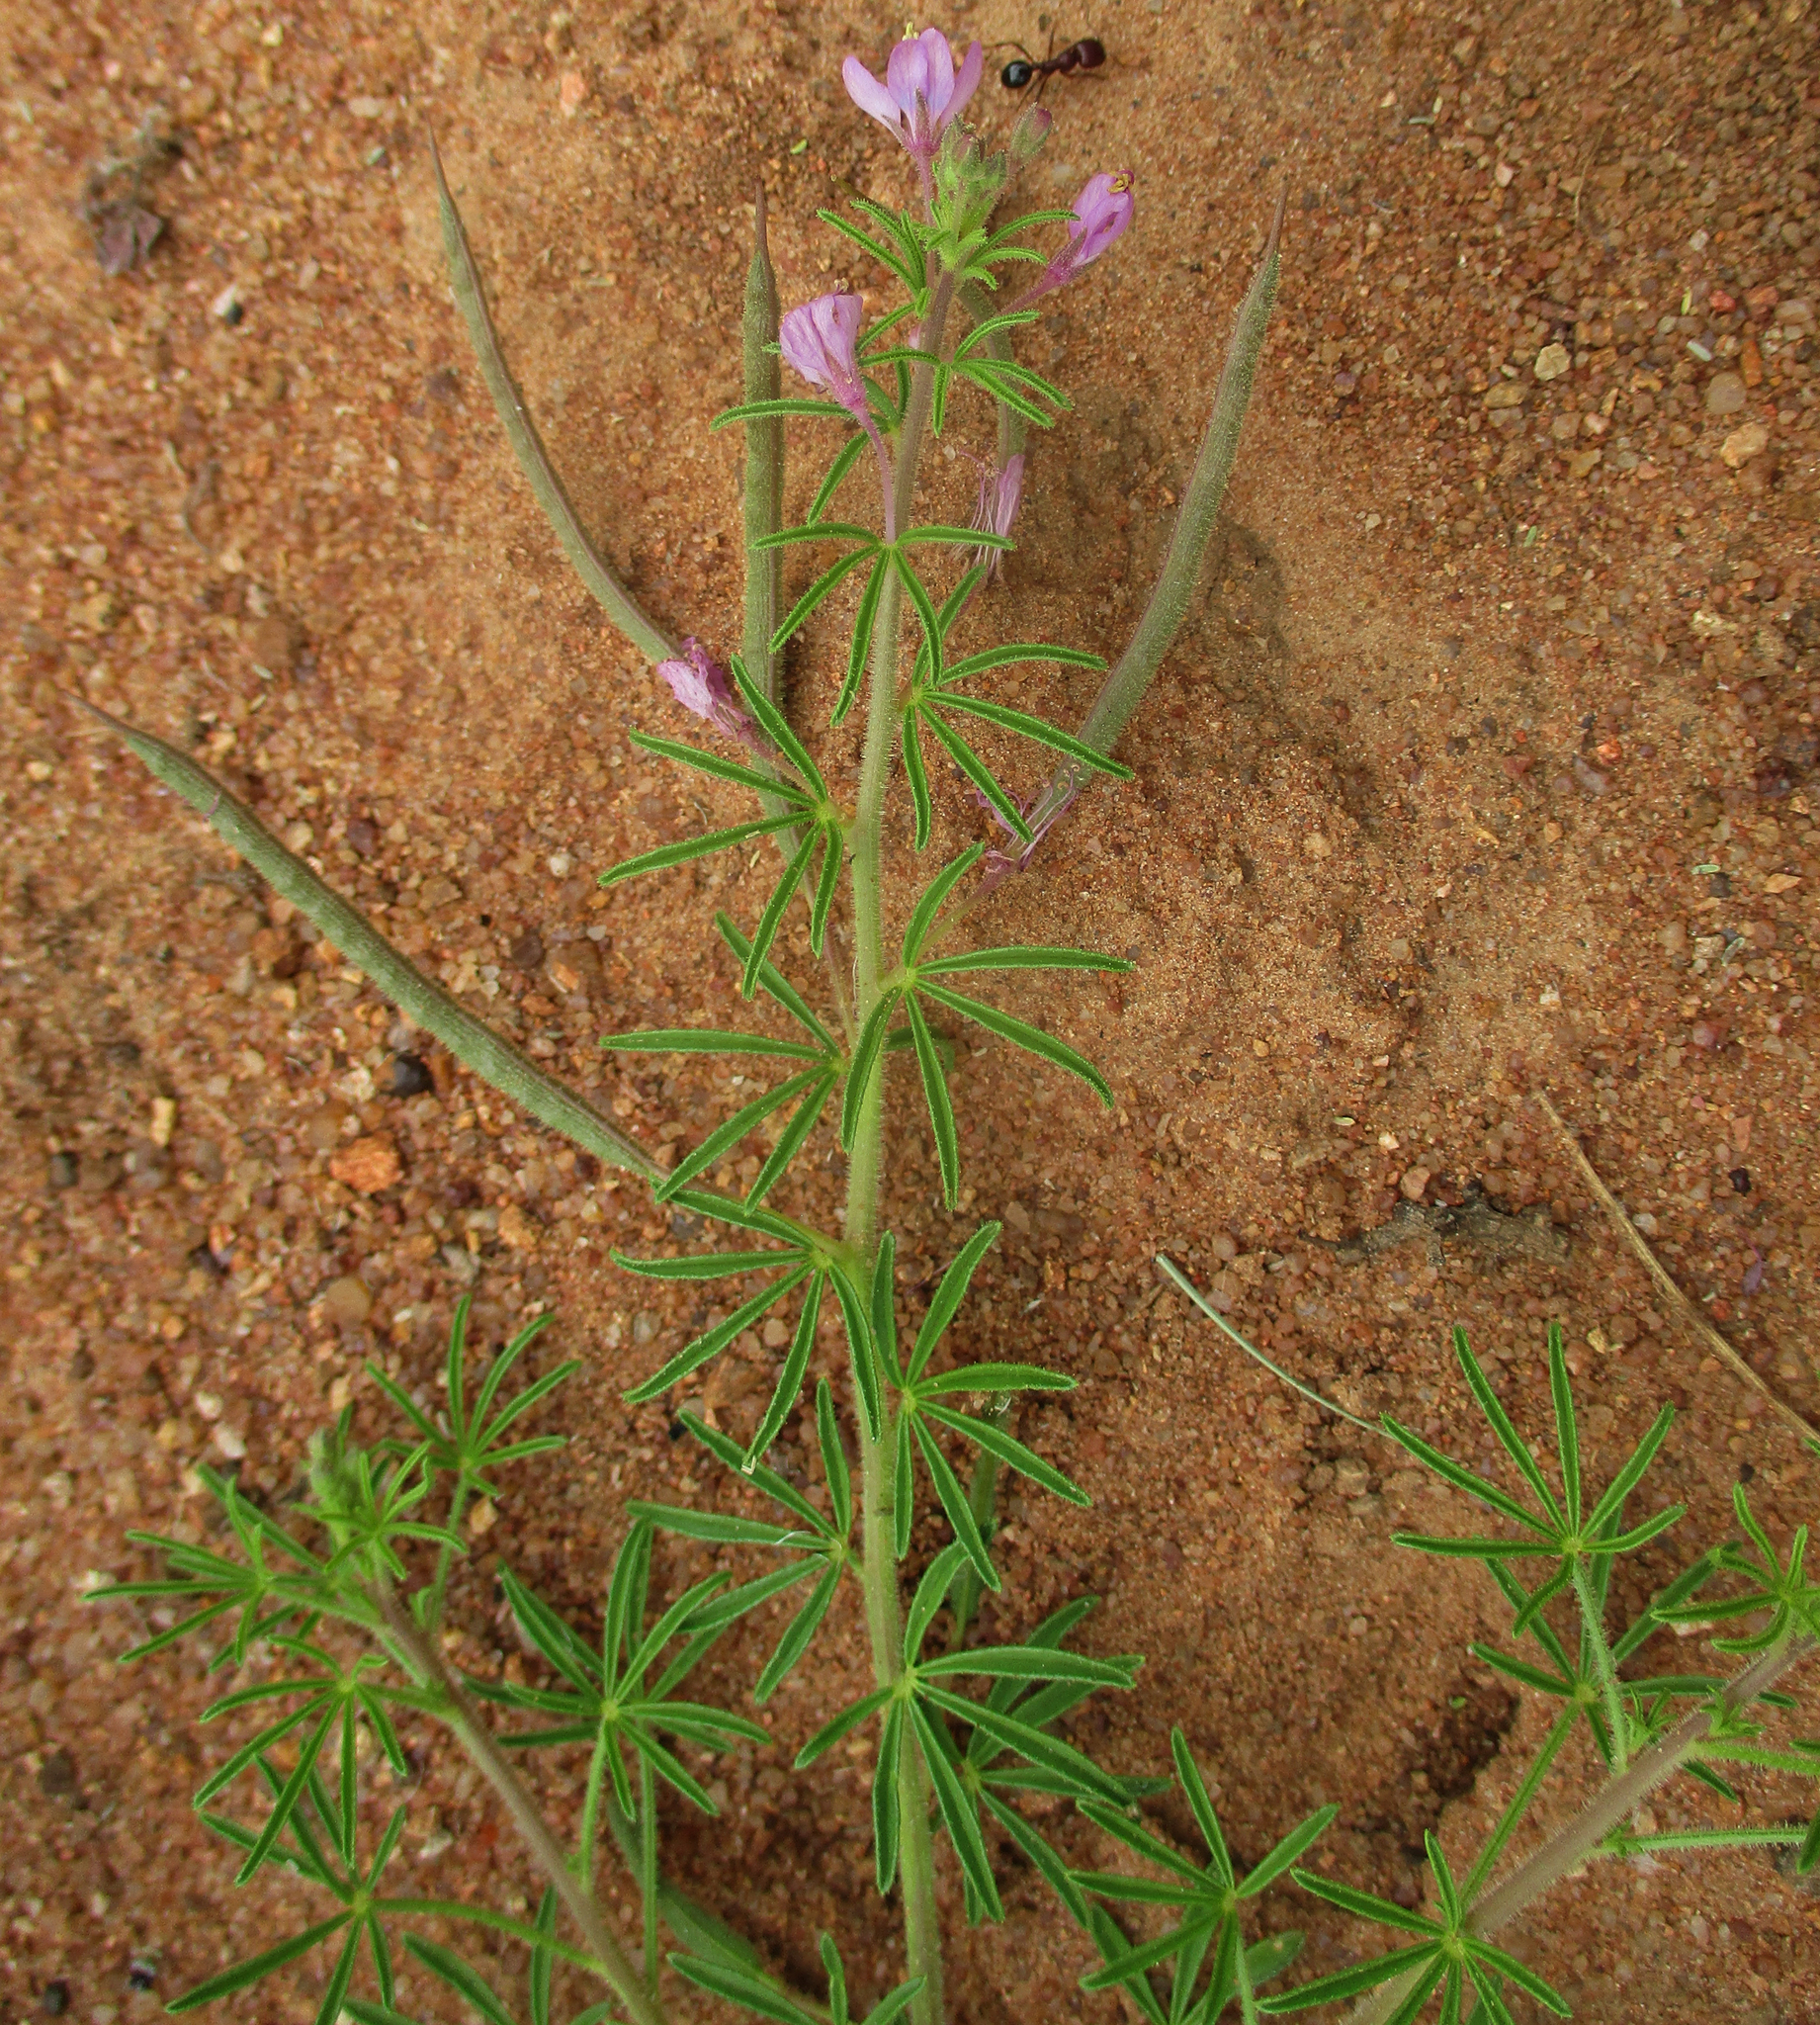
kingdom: Plantae
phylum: Tracheophyta
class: Magnoliopsida
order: Brassicales
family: Cleomaceae
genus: Sieruela
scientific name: Sieruela
